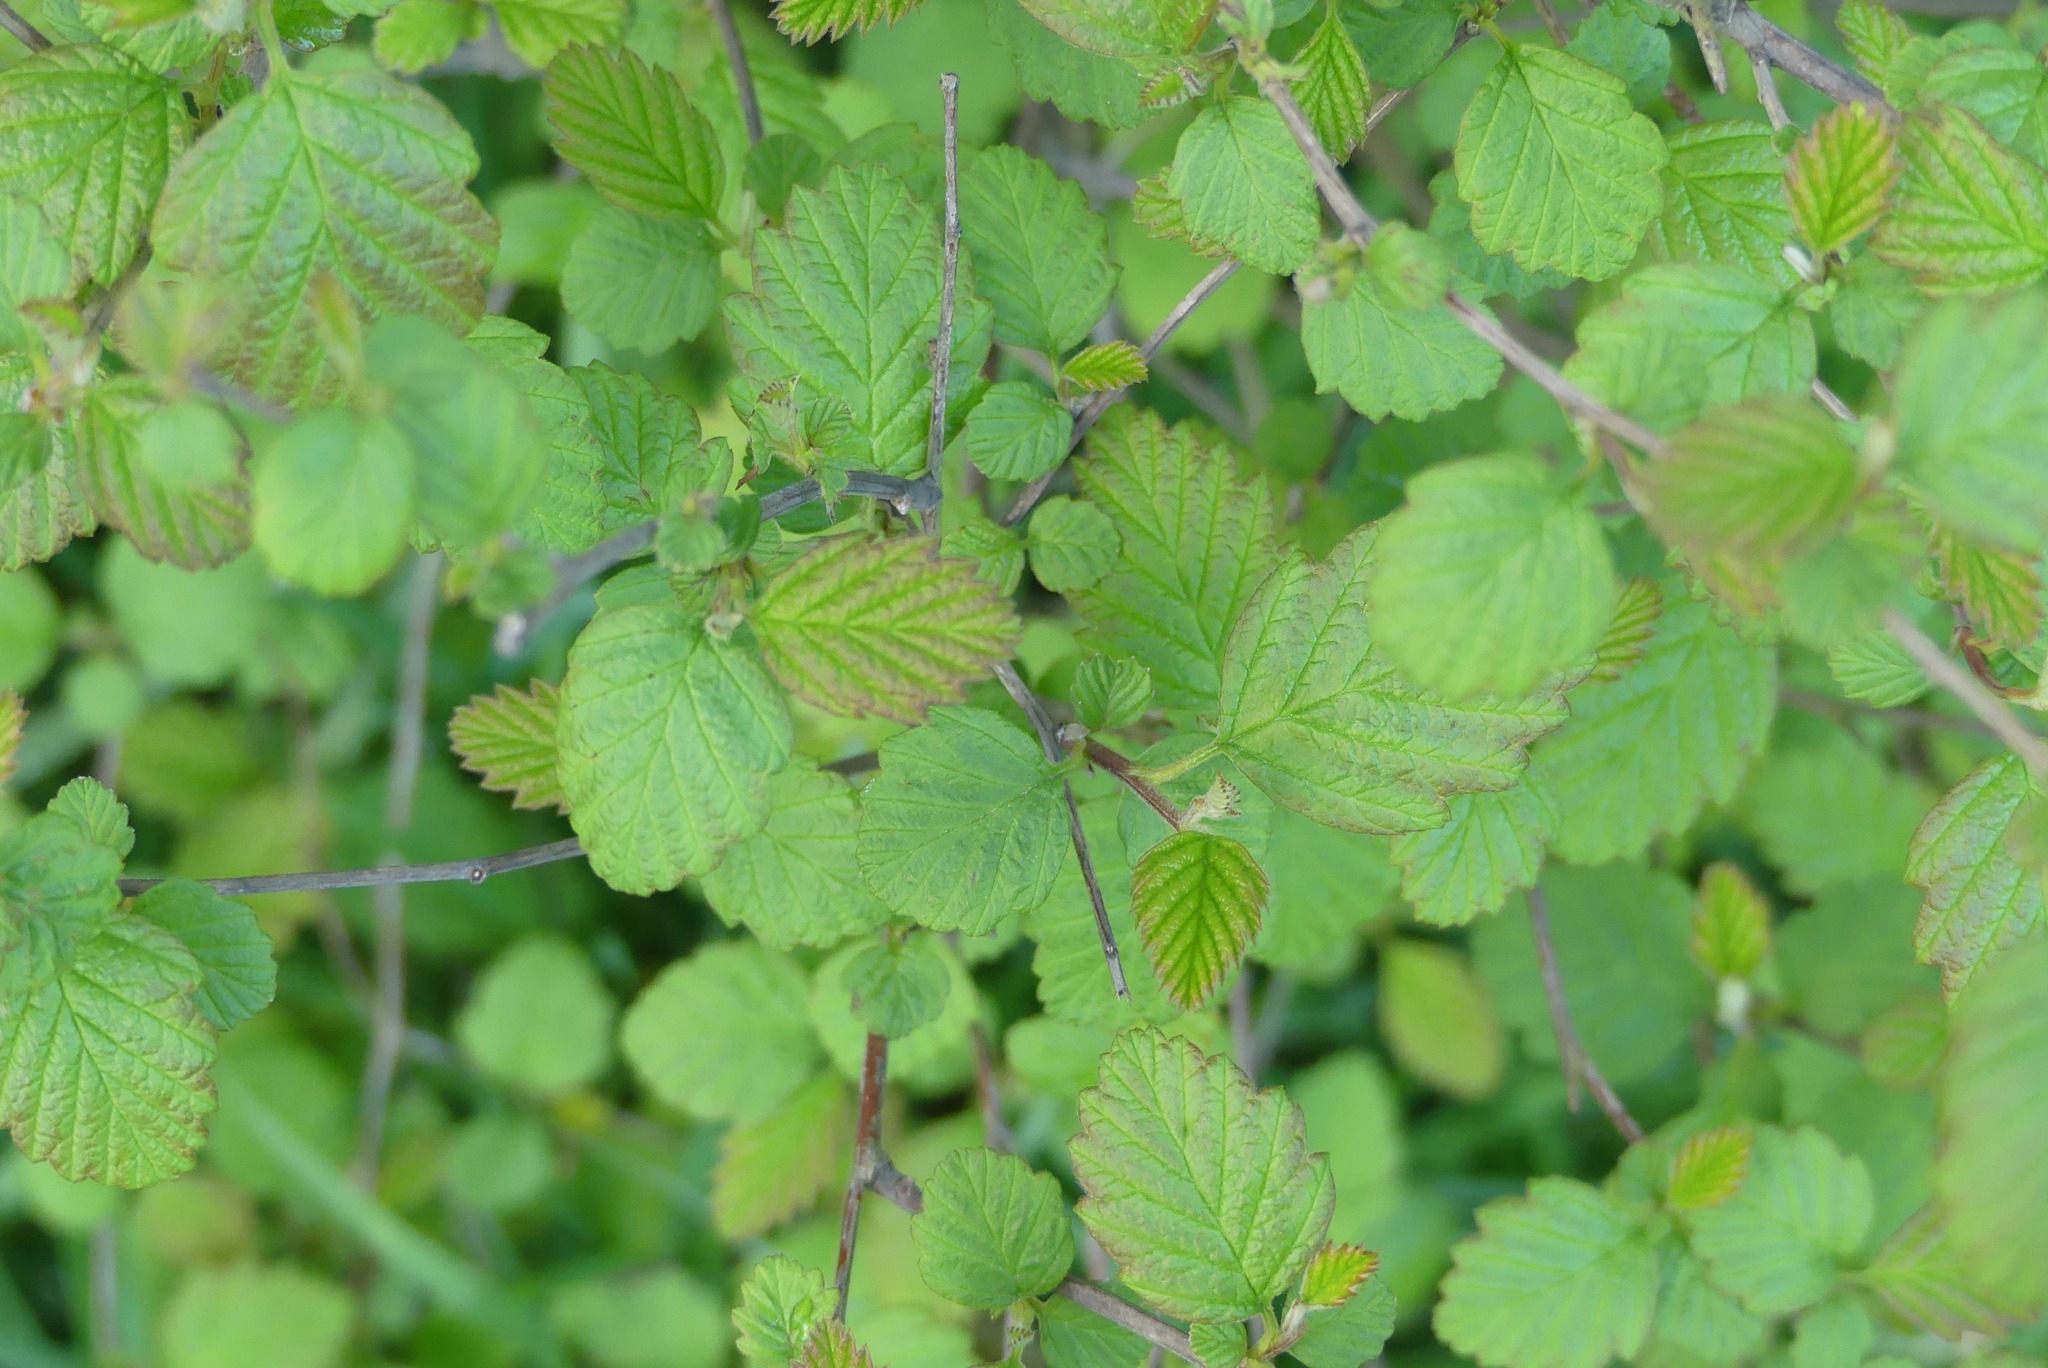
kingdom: Plantae
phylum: Tracheophyta
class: Magnoliopsida
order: Rosales
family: Rosaceae
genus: Holodiscus
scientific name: Holodiscus discolor
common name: Oceanspray
